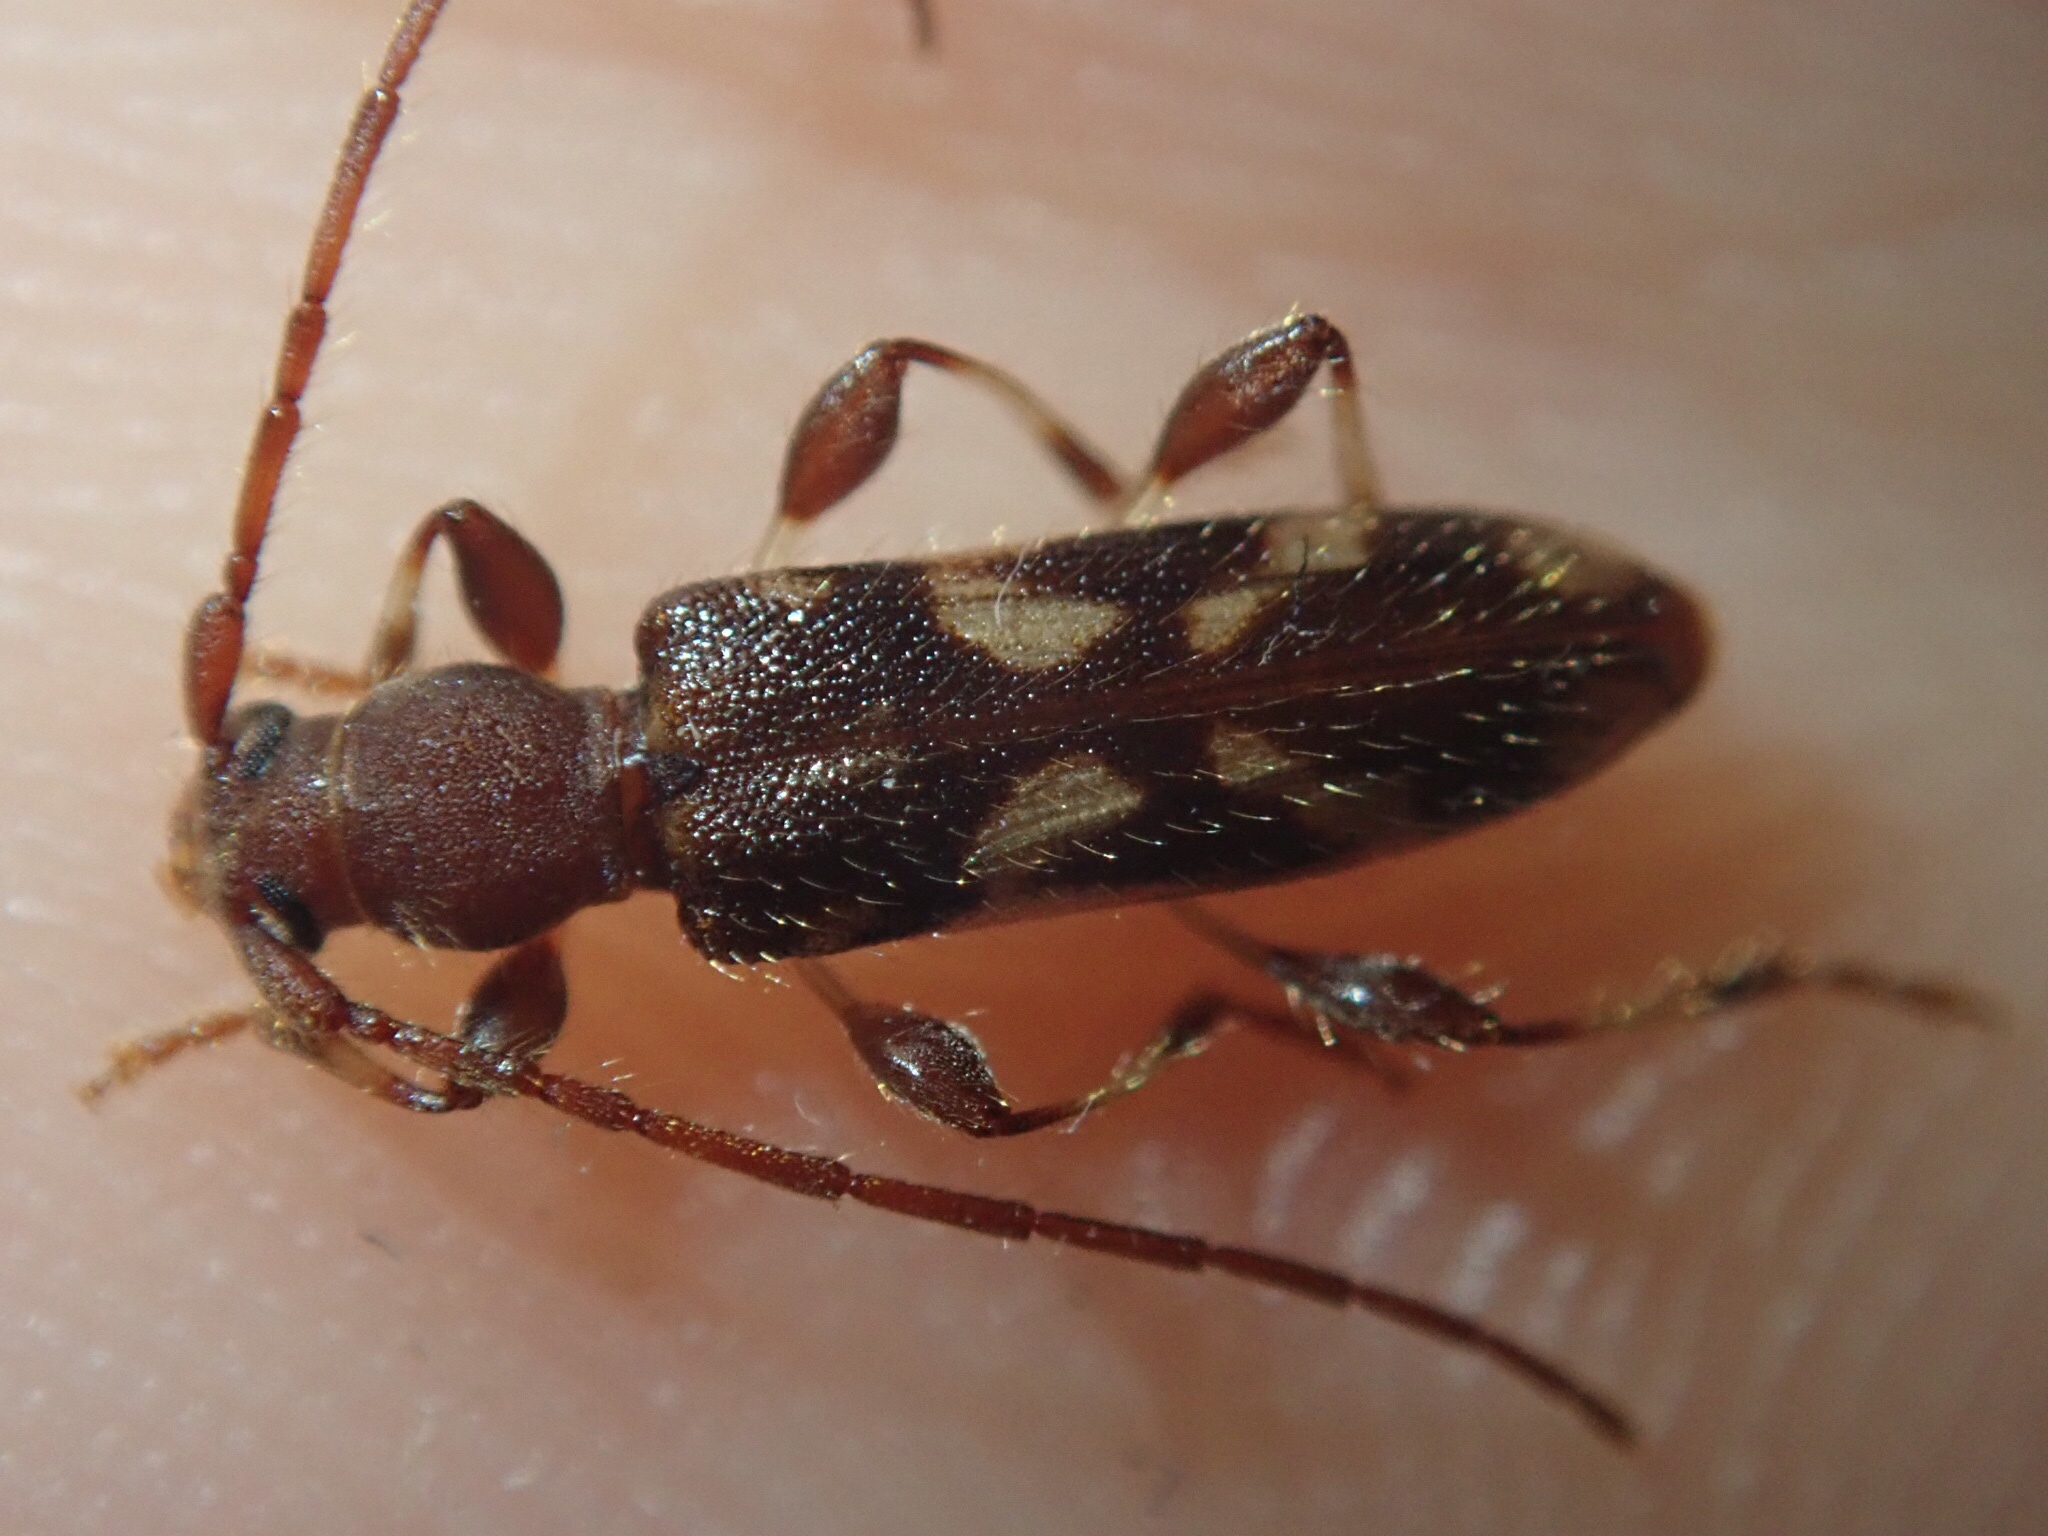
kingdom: Animalia
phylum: Arthropoda
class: Insecta
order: Coleoptera
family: Cerambycidae
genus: Bethelium
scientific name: Bethelium signiferum
